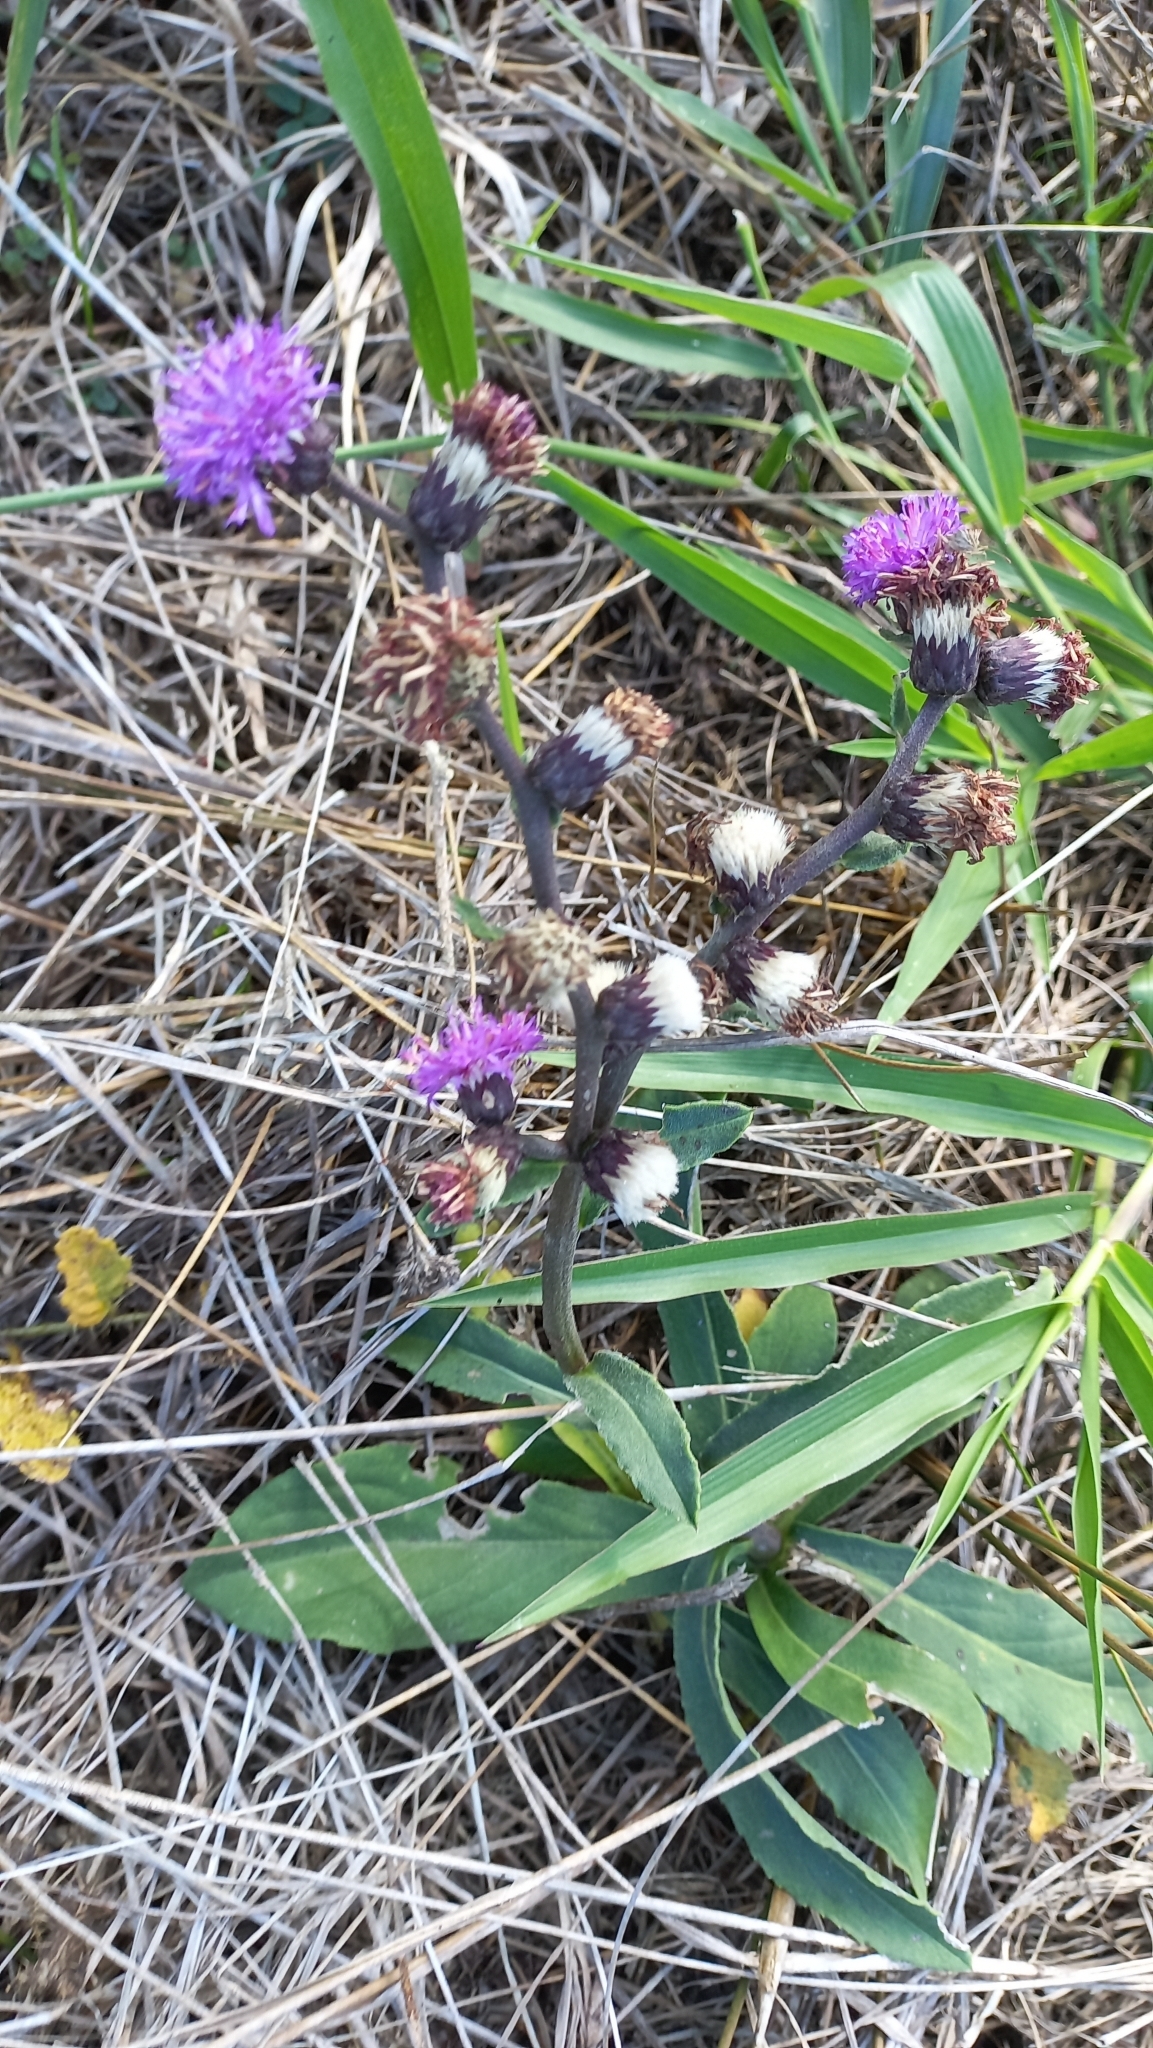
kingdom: Plantae
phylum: Tracheophyta
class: Magnoliopsida
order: Asterales
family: Asteraceae
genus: Chrysolaena
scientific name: Chrysolaena flexuosa
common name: Zig-zag vernonia
